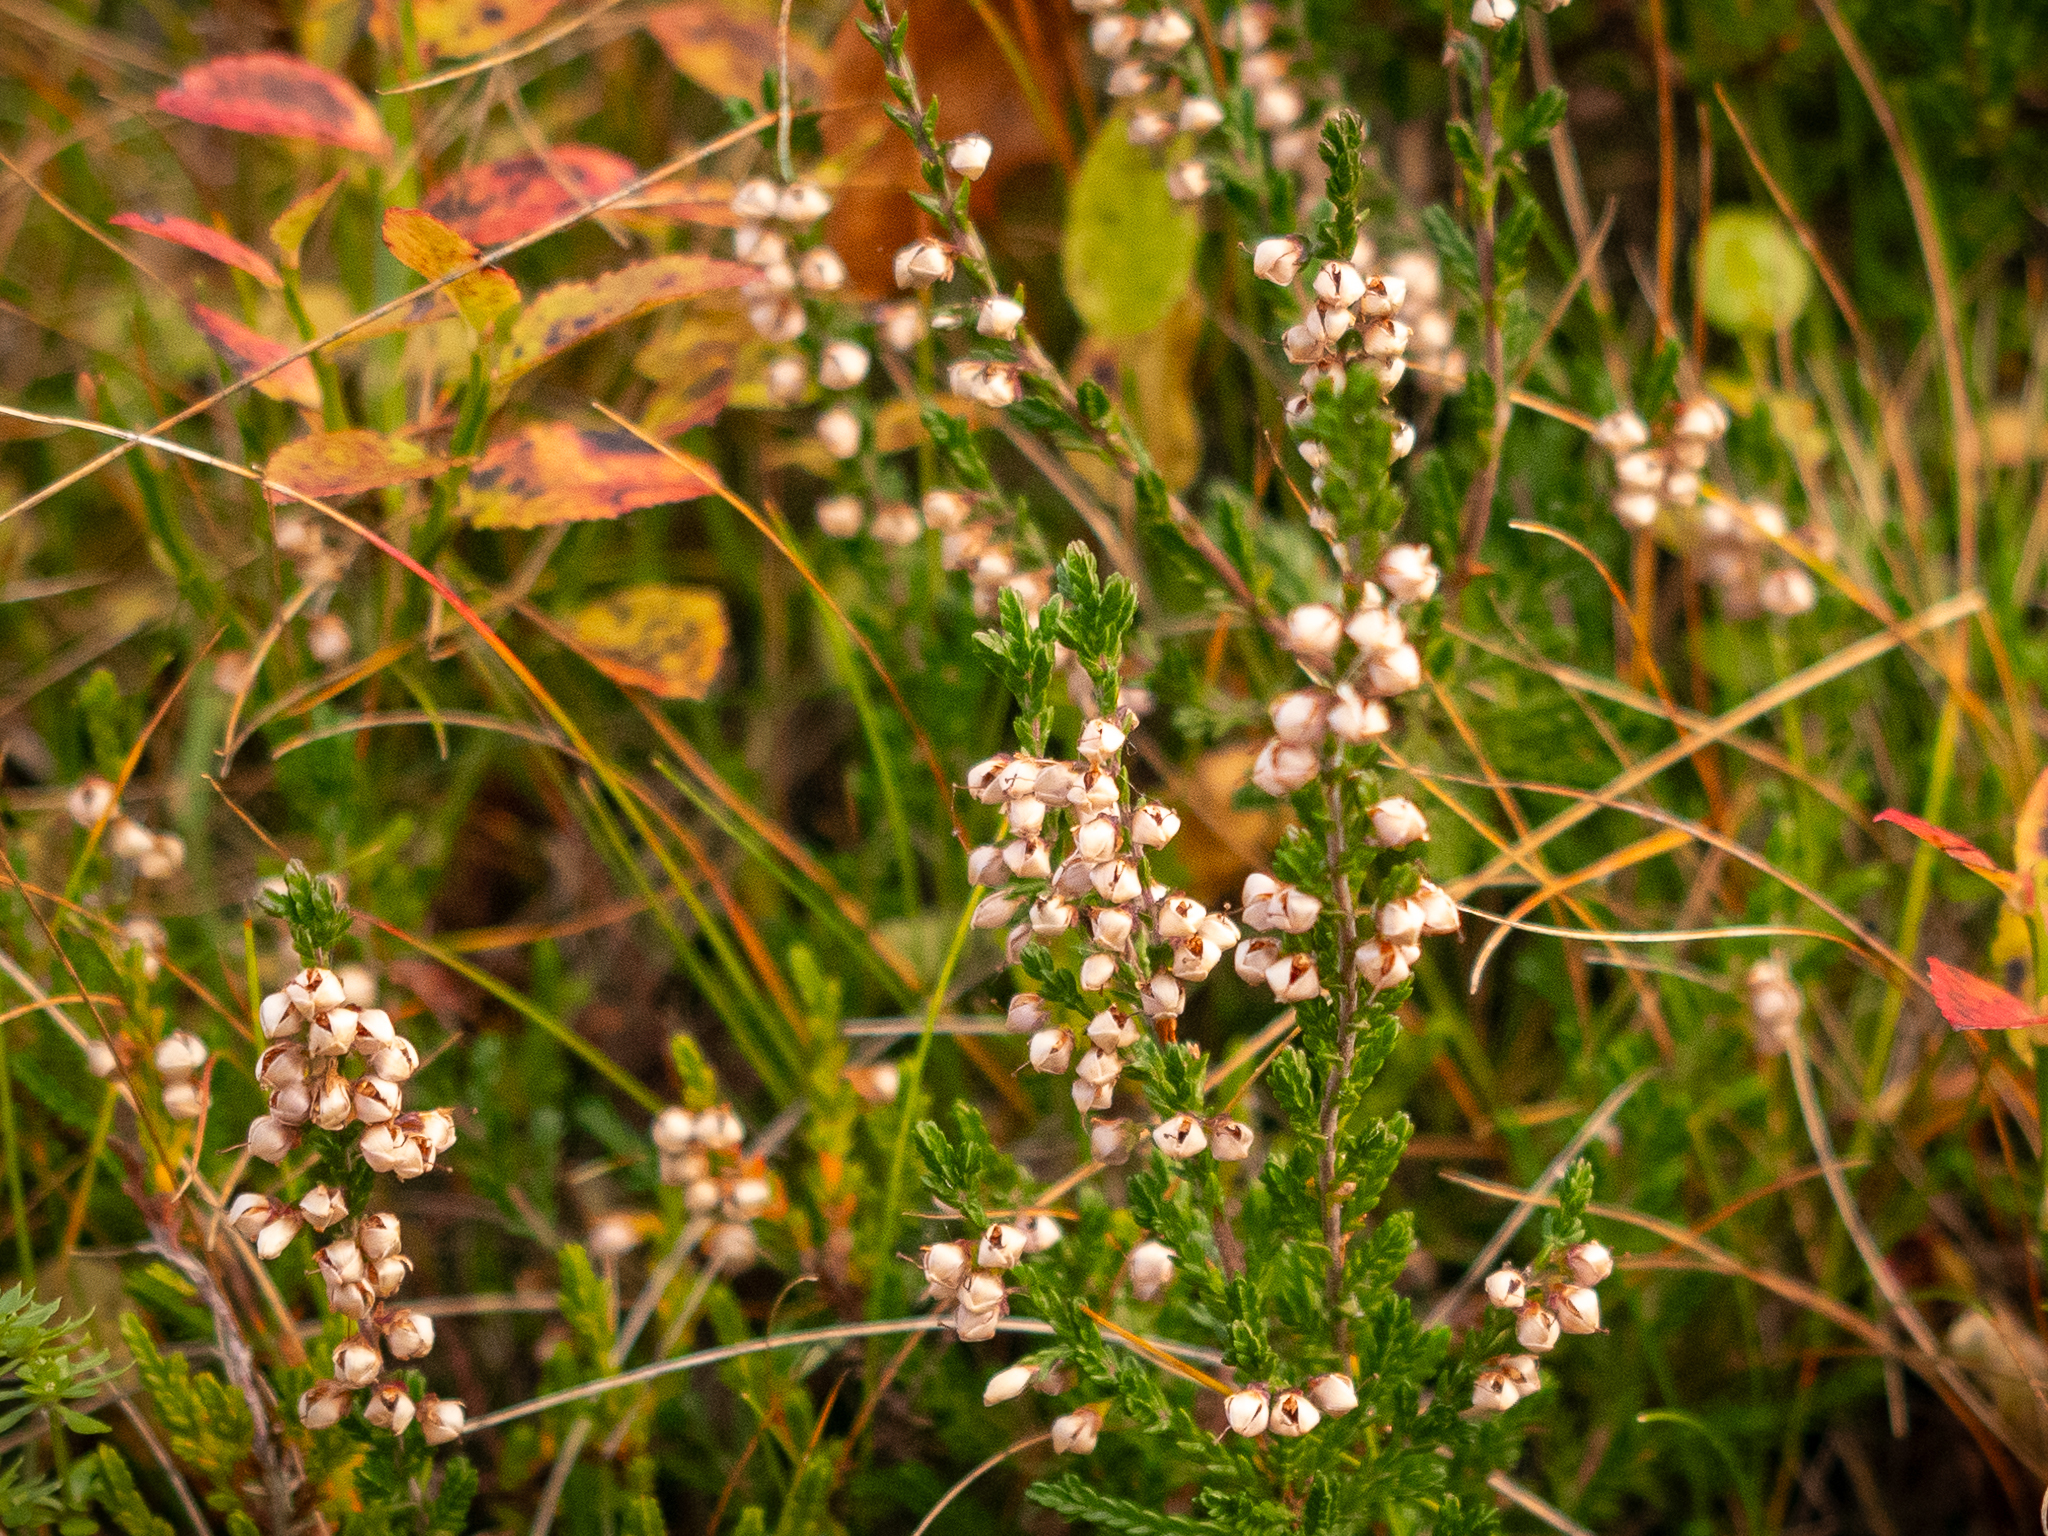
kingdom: Plantae
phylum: Tracheophyta
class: Magnoliopsida
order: Ericales
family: Ericaceae
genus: Calluna
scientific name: Calluna vulgaris
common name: Heather
